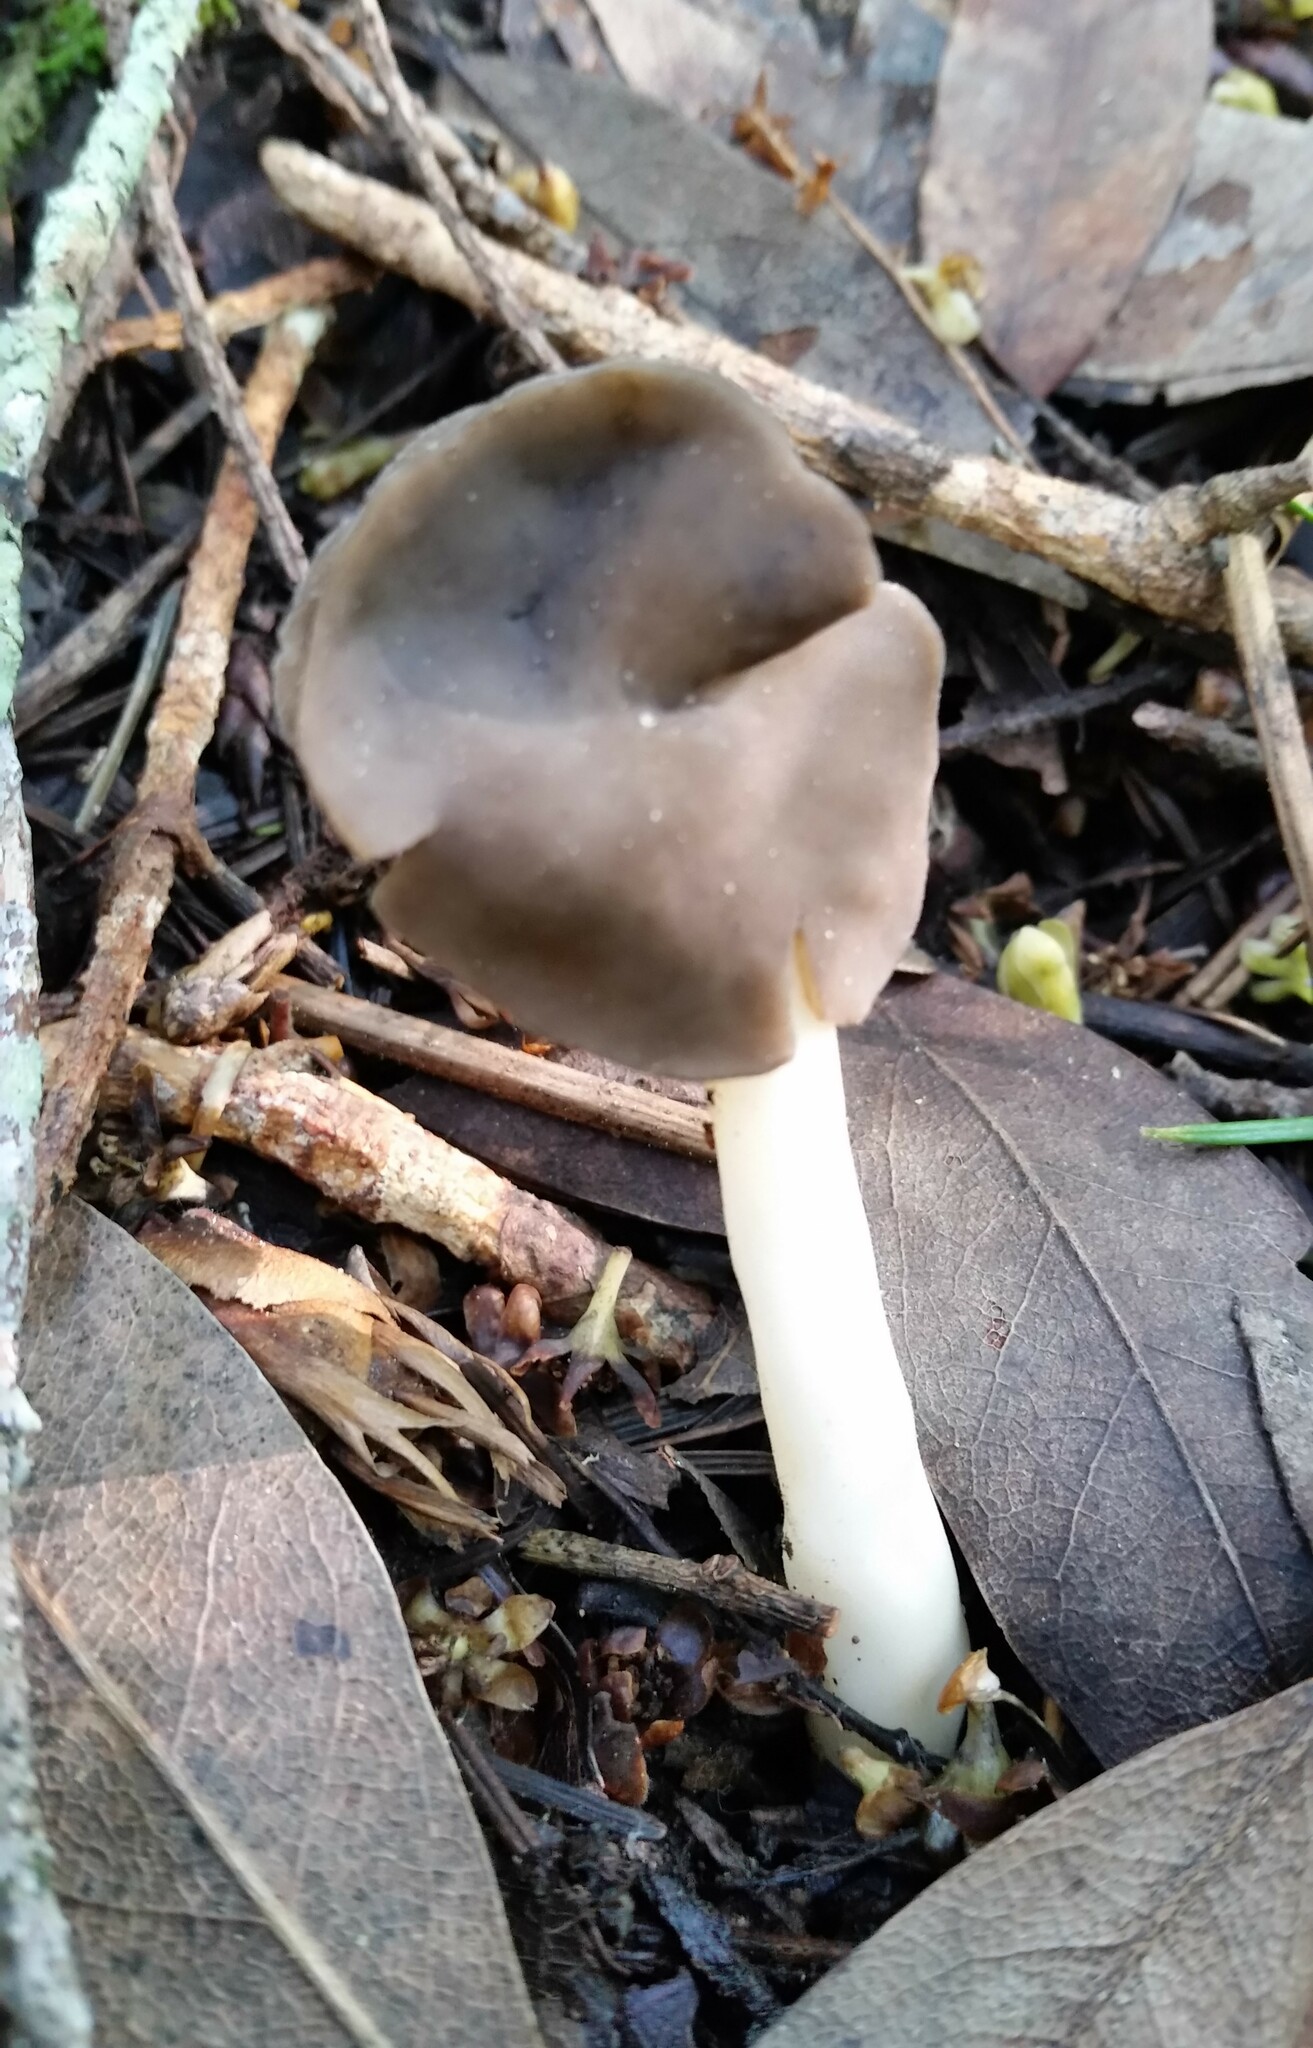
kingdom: Fungi
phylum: Ascomycota
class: Pezizomycetes
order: Pezizales
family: Helvellaceae
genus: Helvella
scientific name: Helvella compressa
